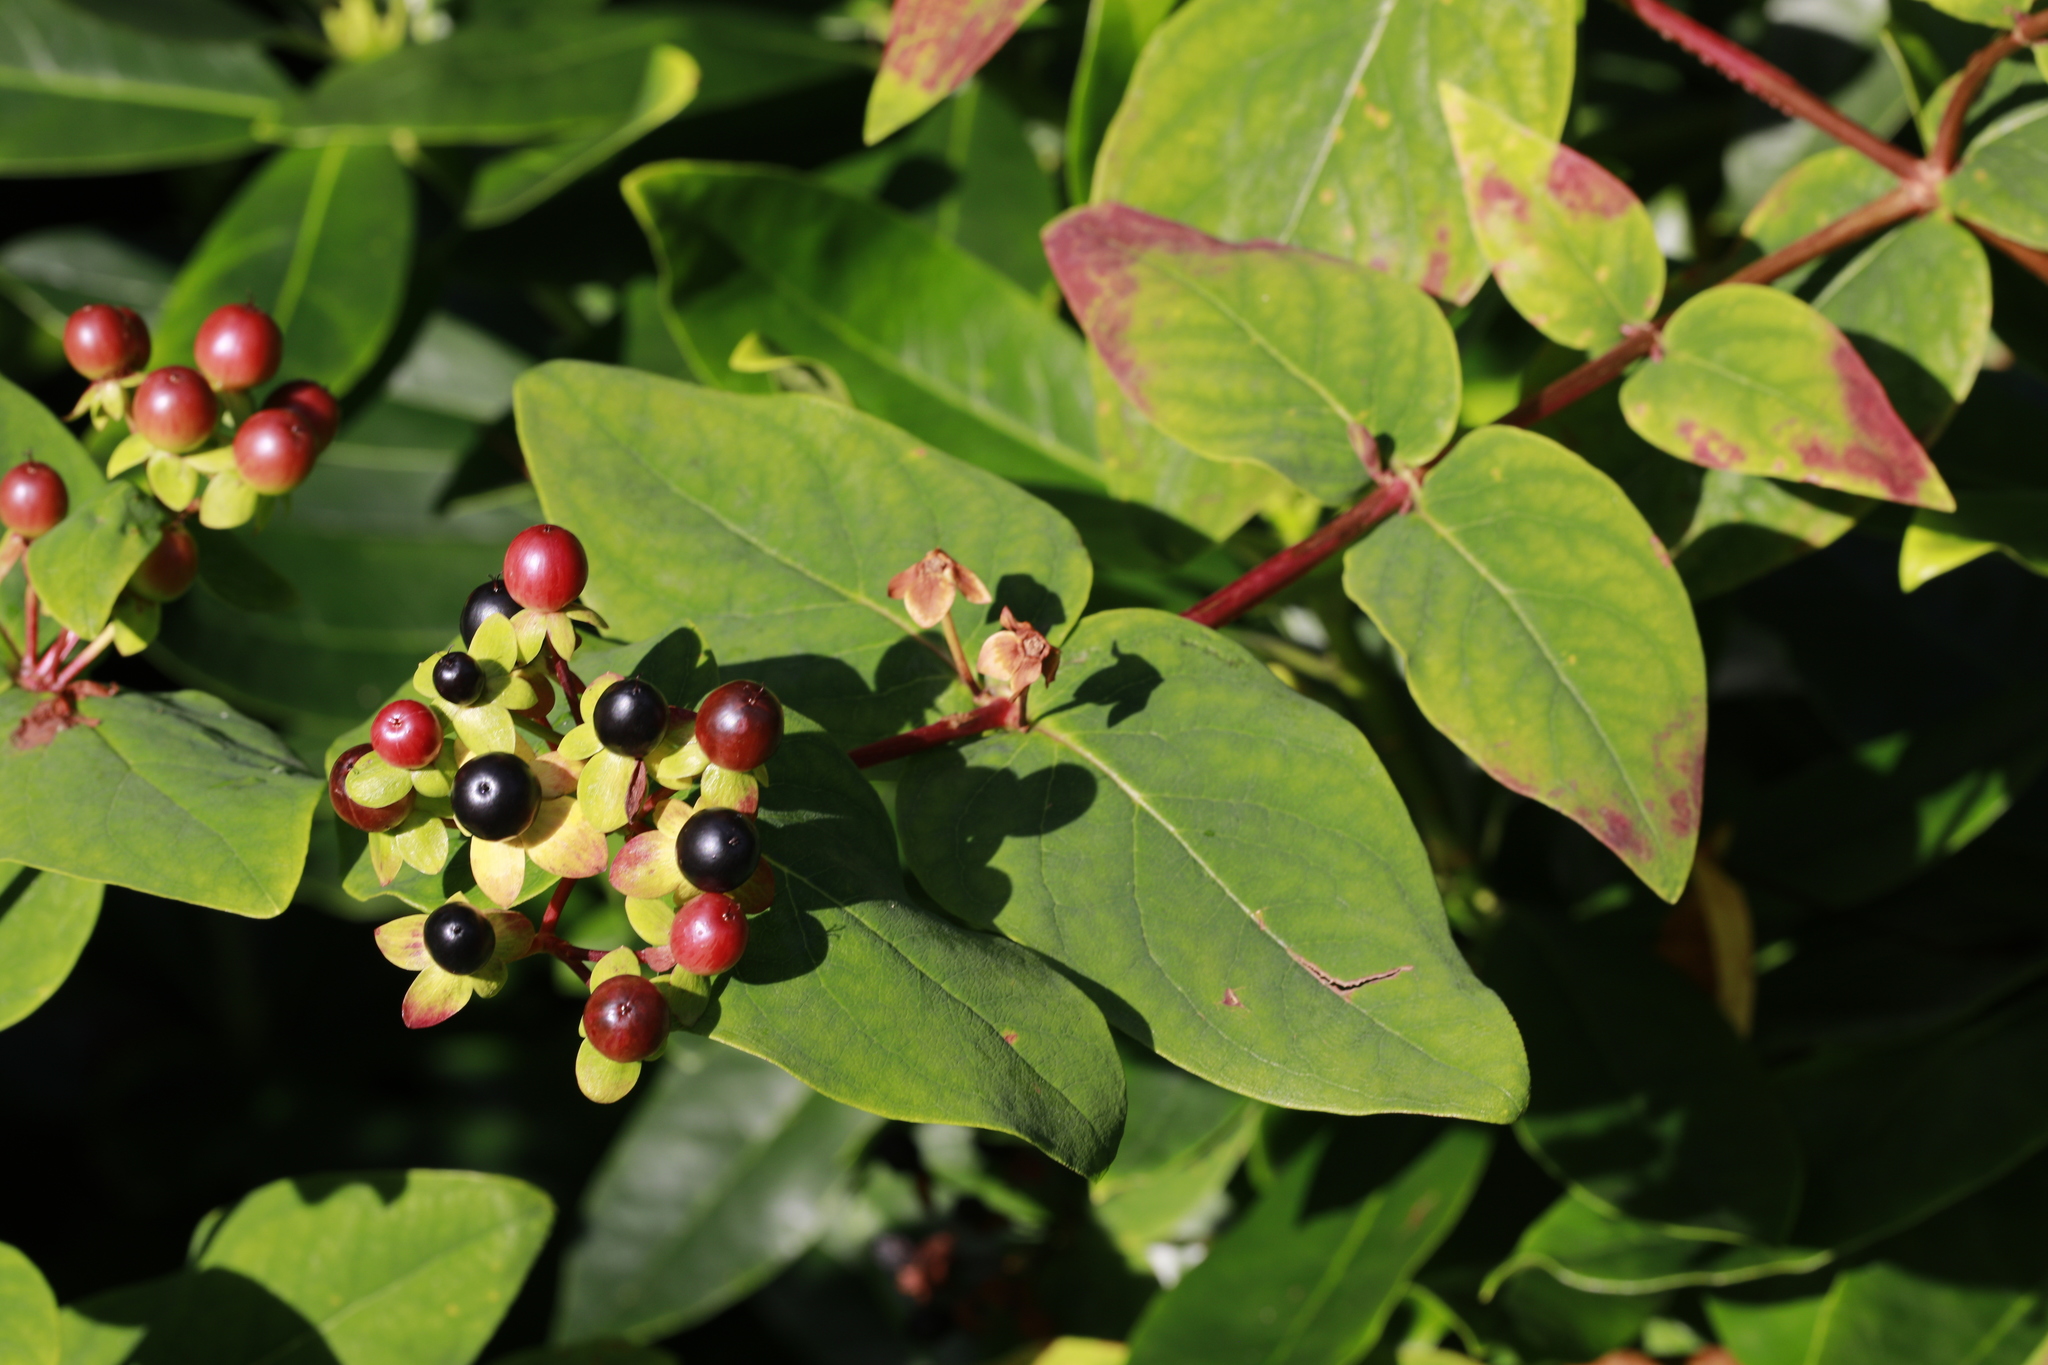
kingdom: Plantae
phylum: Tracheophyta
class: Magnoliopsida
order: Malpighiales
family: Hypericaceae
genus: Hypericum
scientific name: Hypericum androsaemum
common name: Sweet-amber
